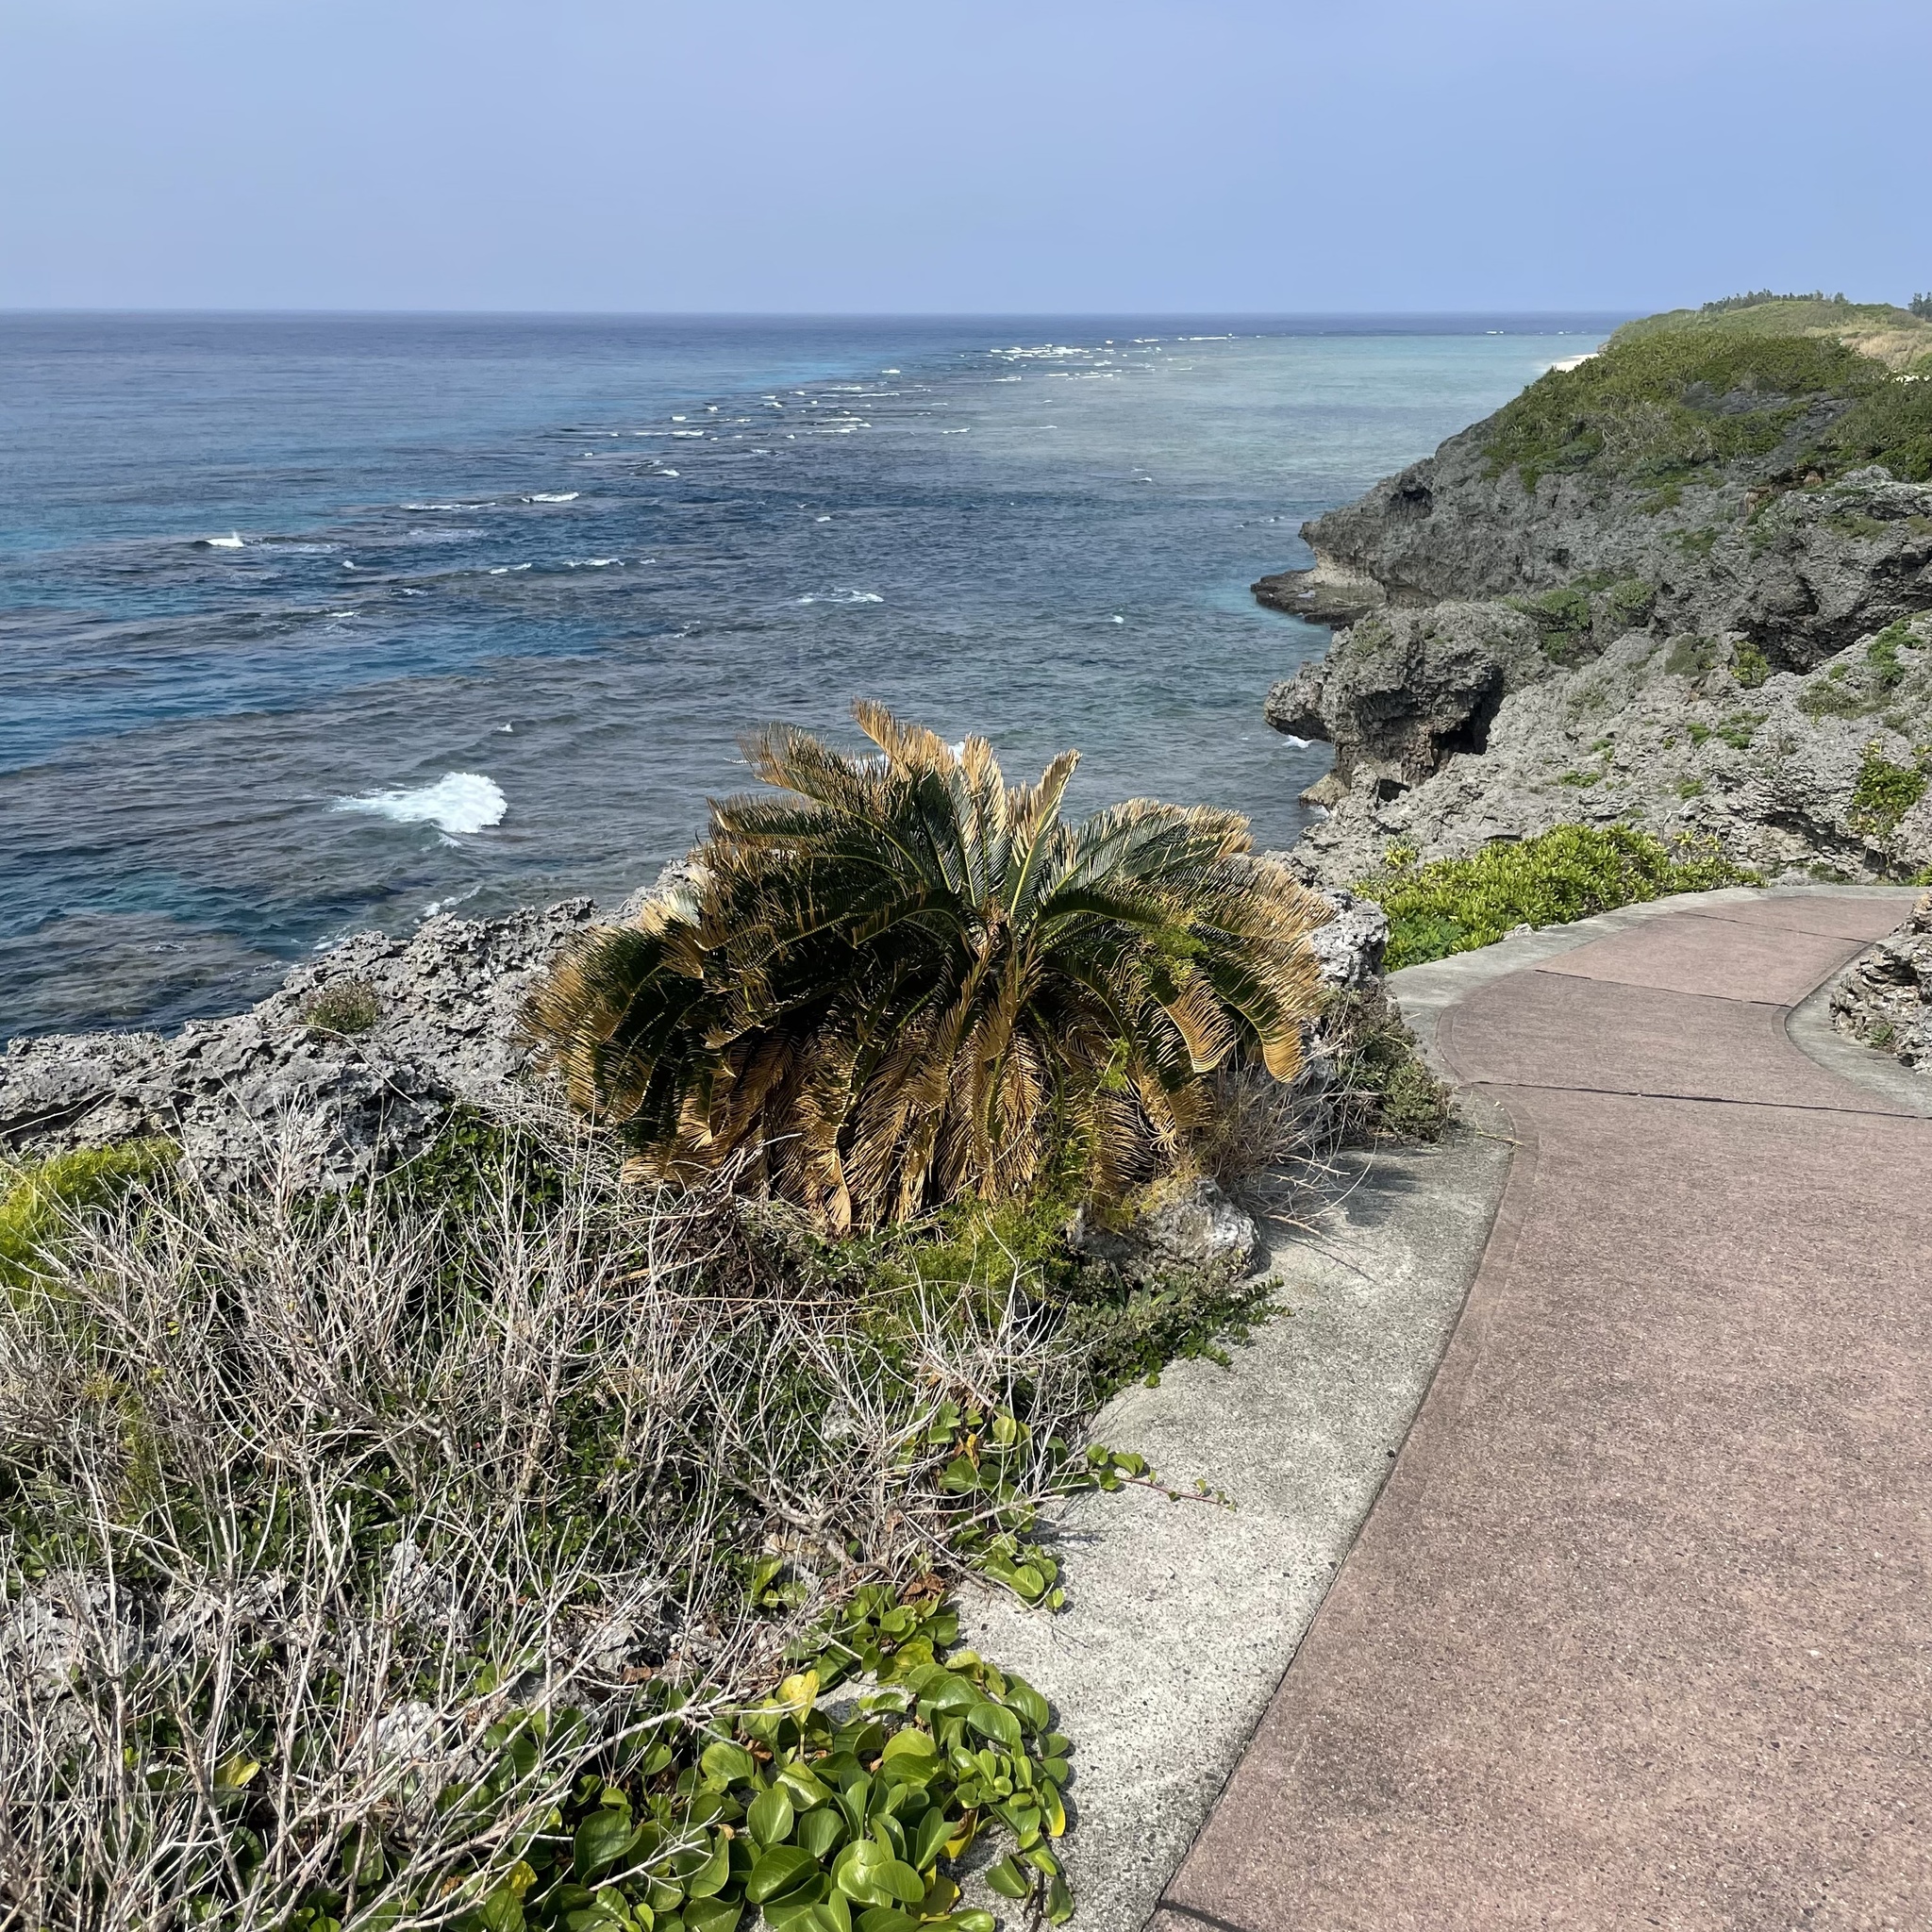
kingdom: Plantae
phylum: Tracheophyta
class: Cycadopsida
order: Cycadales
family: Cycadaceae
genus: Cycas
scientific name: Cycas revoluta
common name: Sago palm
